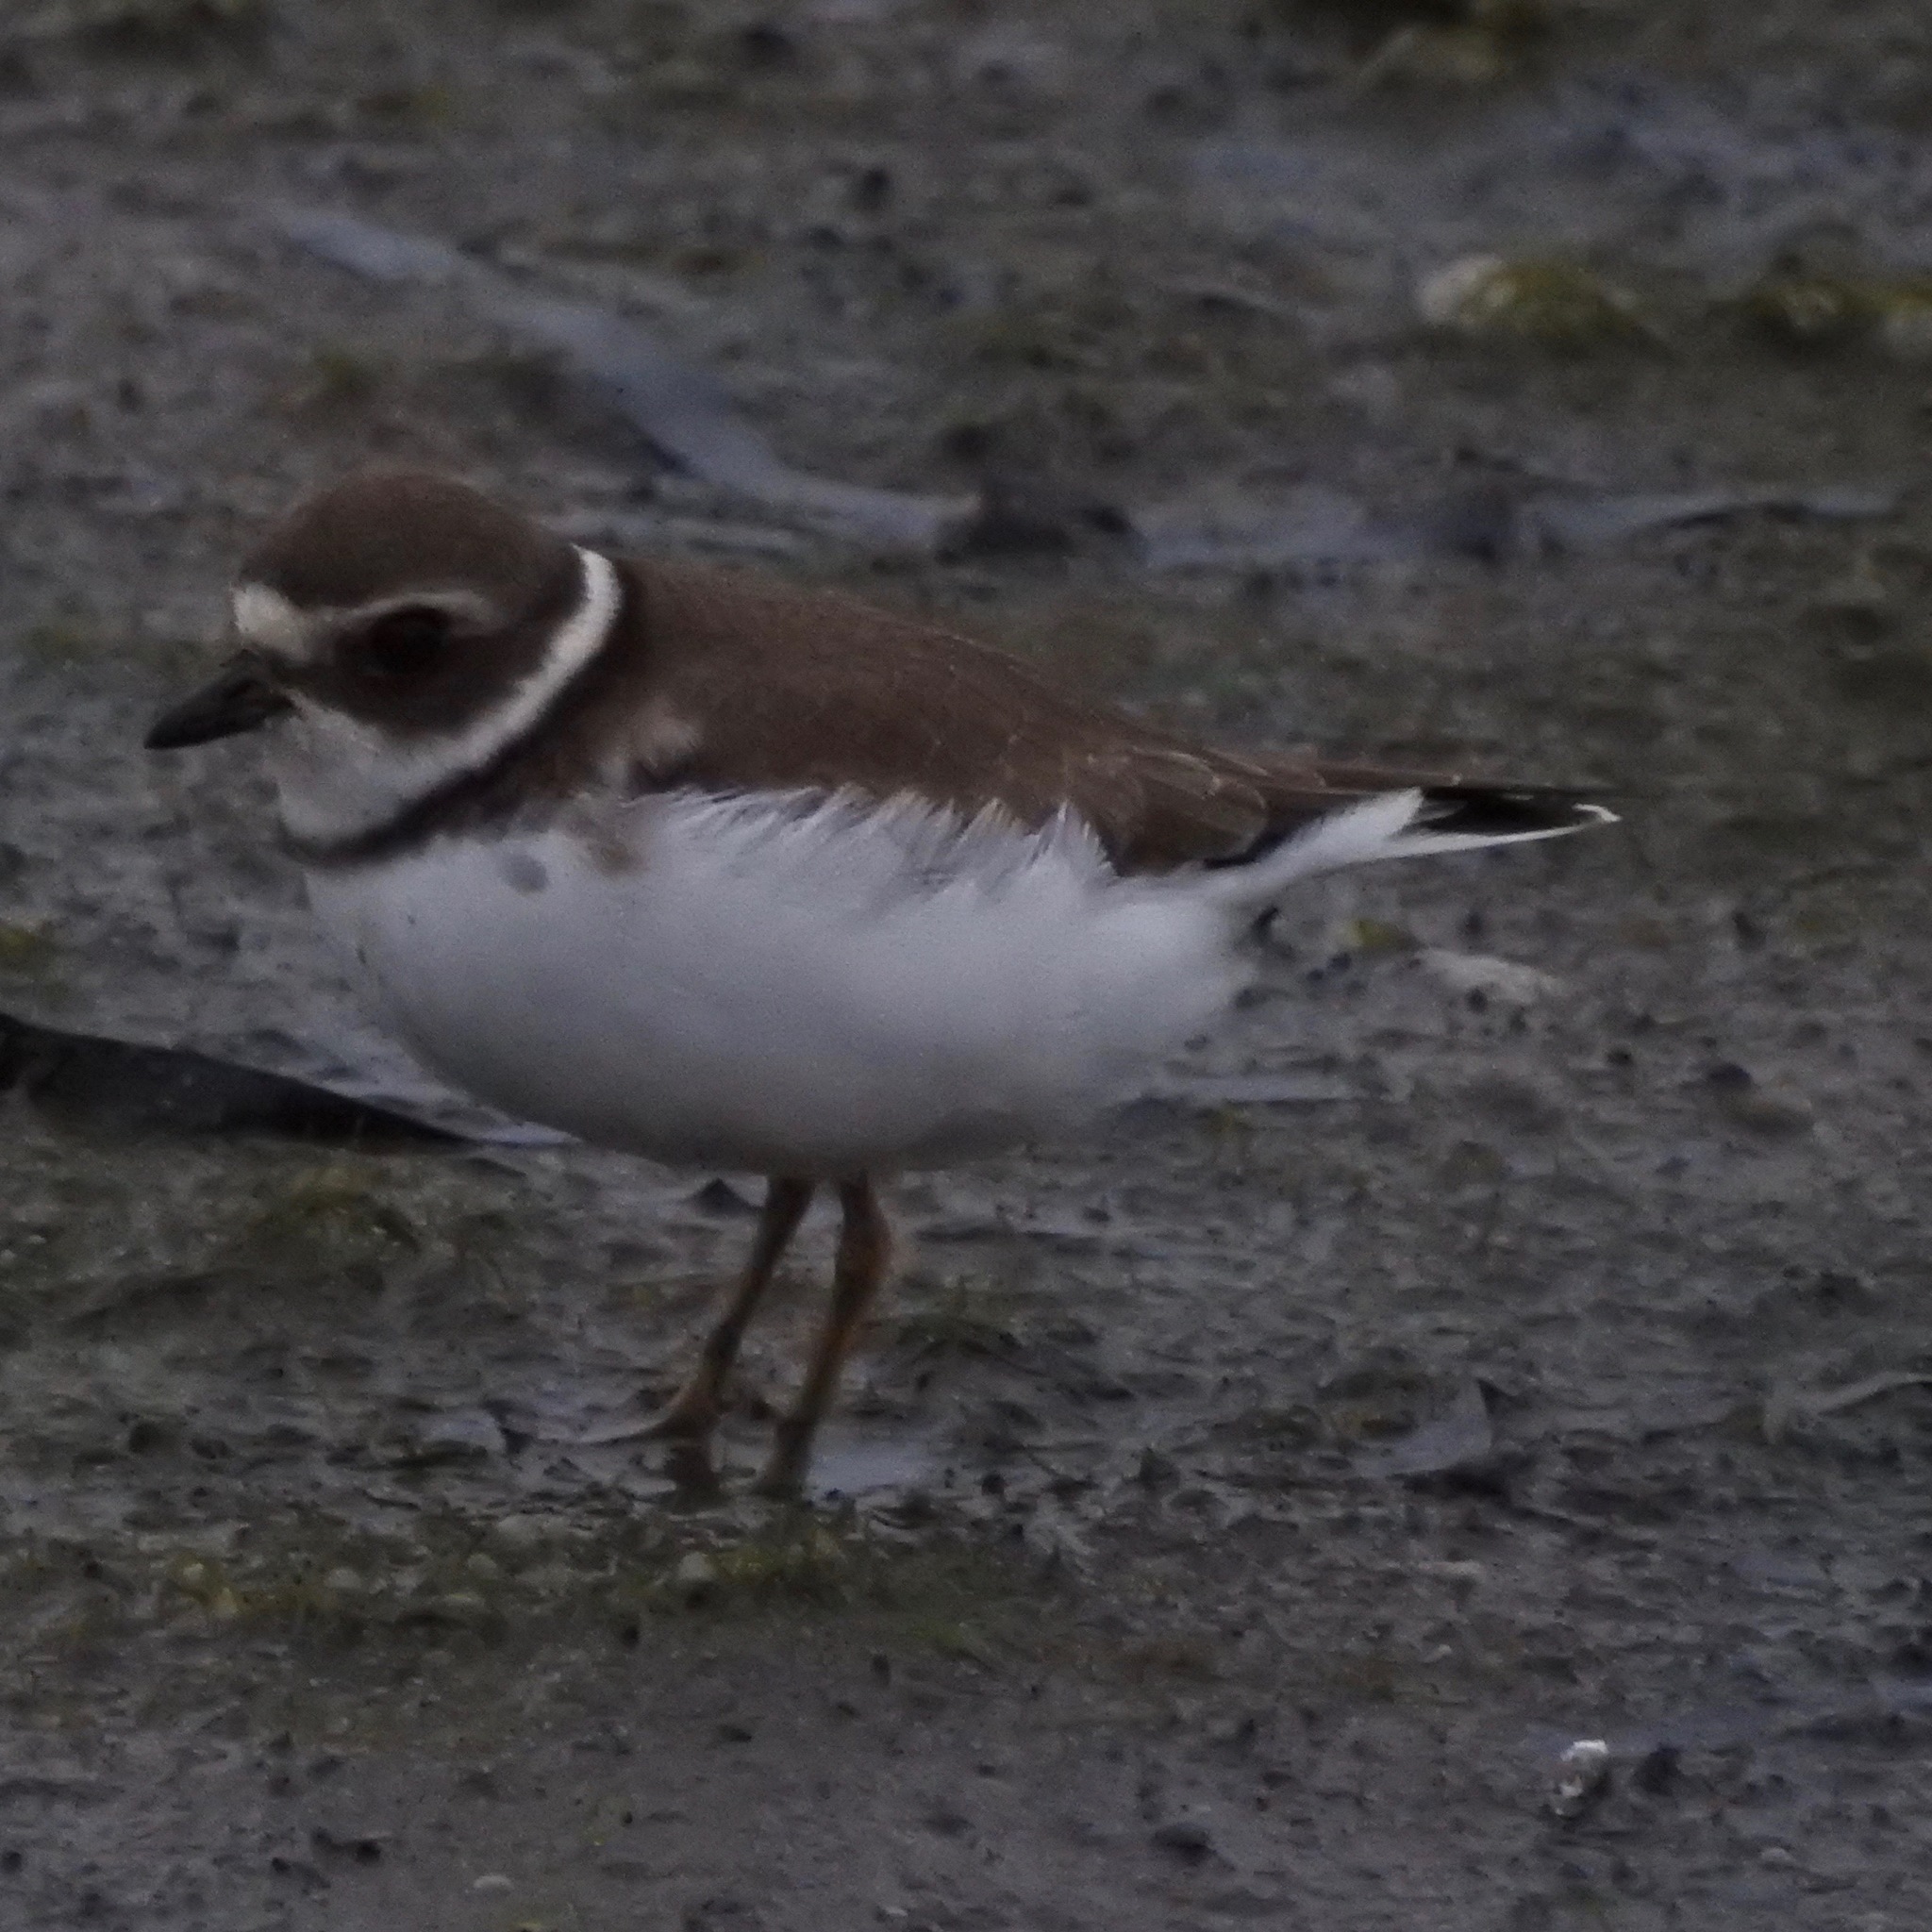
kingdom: Animalia
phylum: Chordata
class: Aves
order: Charadriiformes
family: Charadriidae
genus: Charadrius
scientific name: Charadrius semipalmatus
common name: Semipalmated plover
